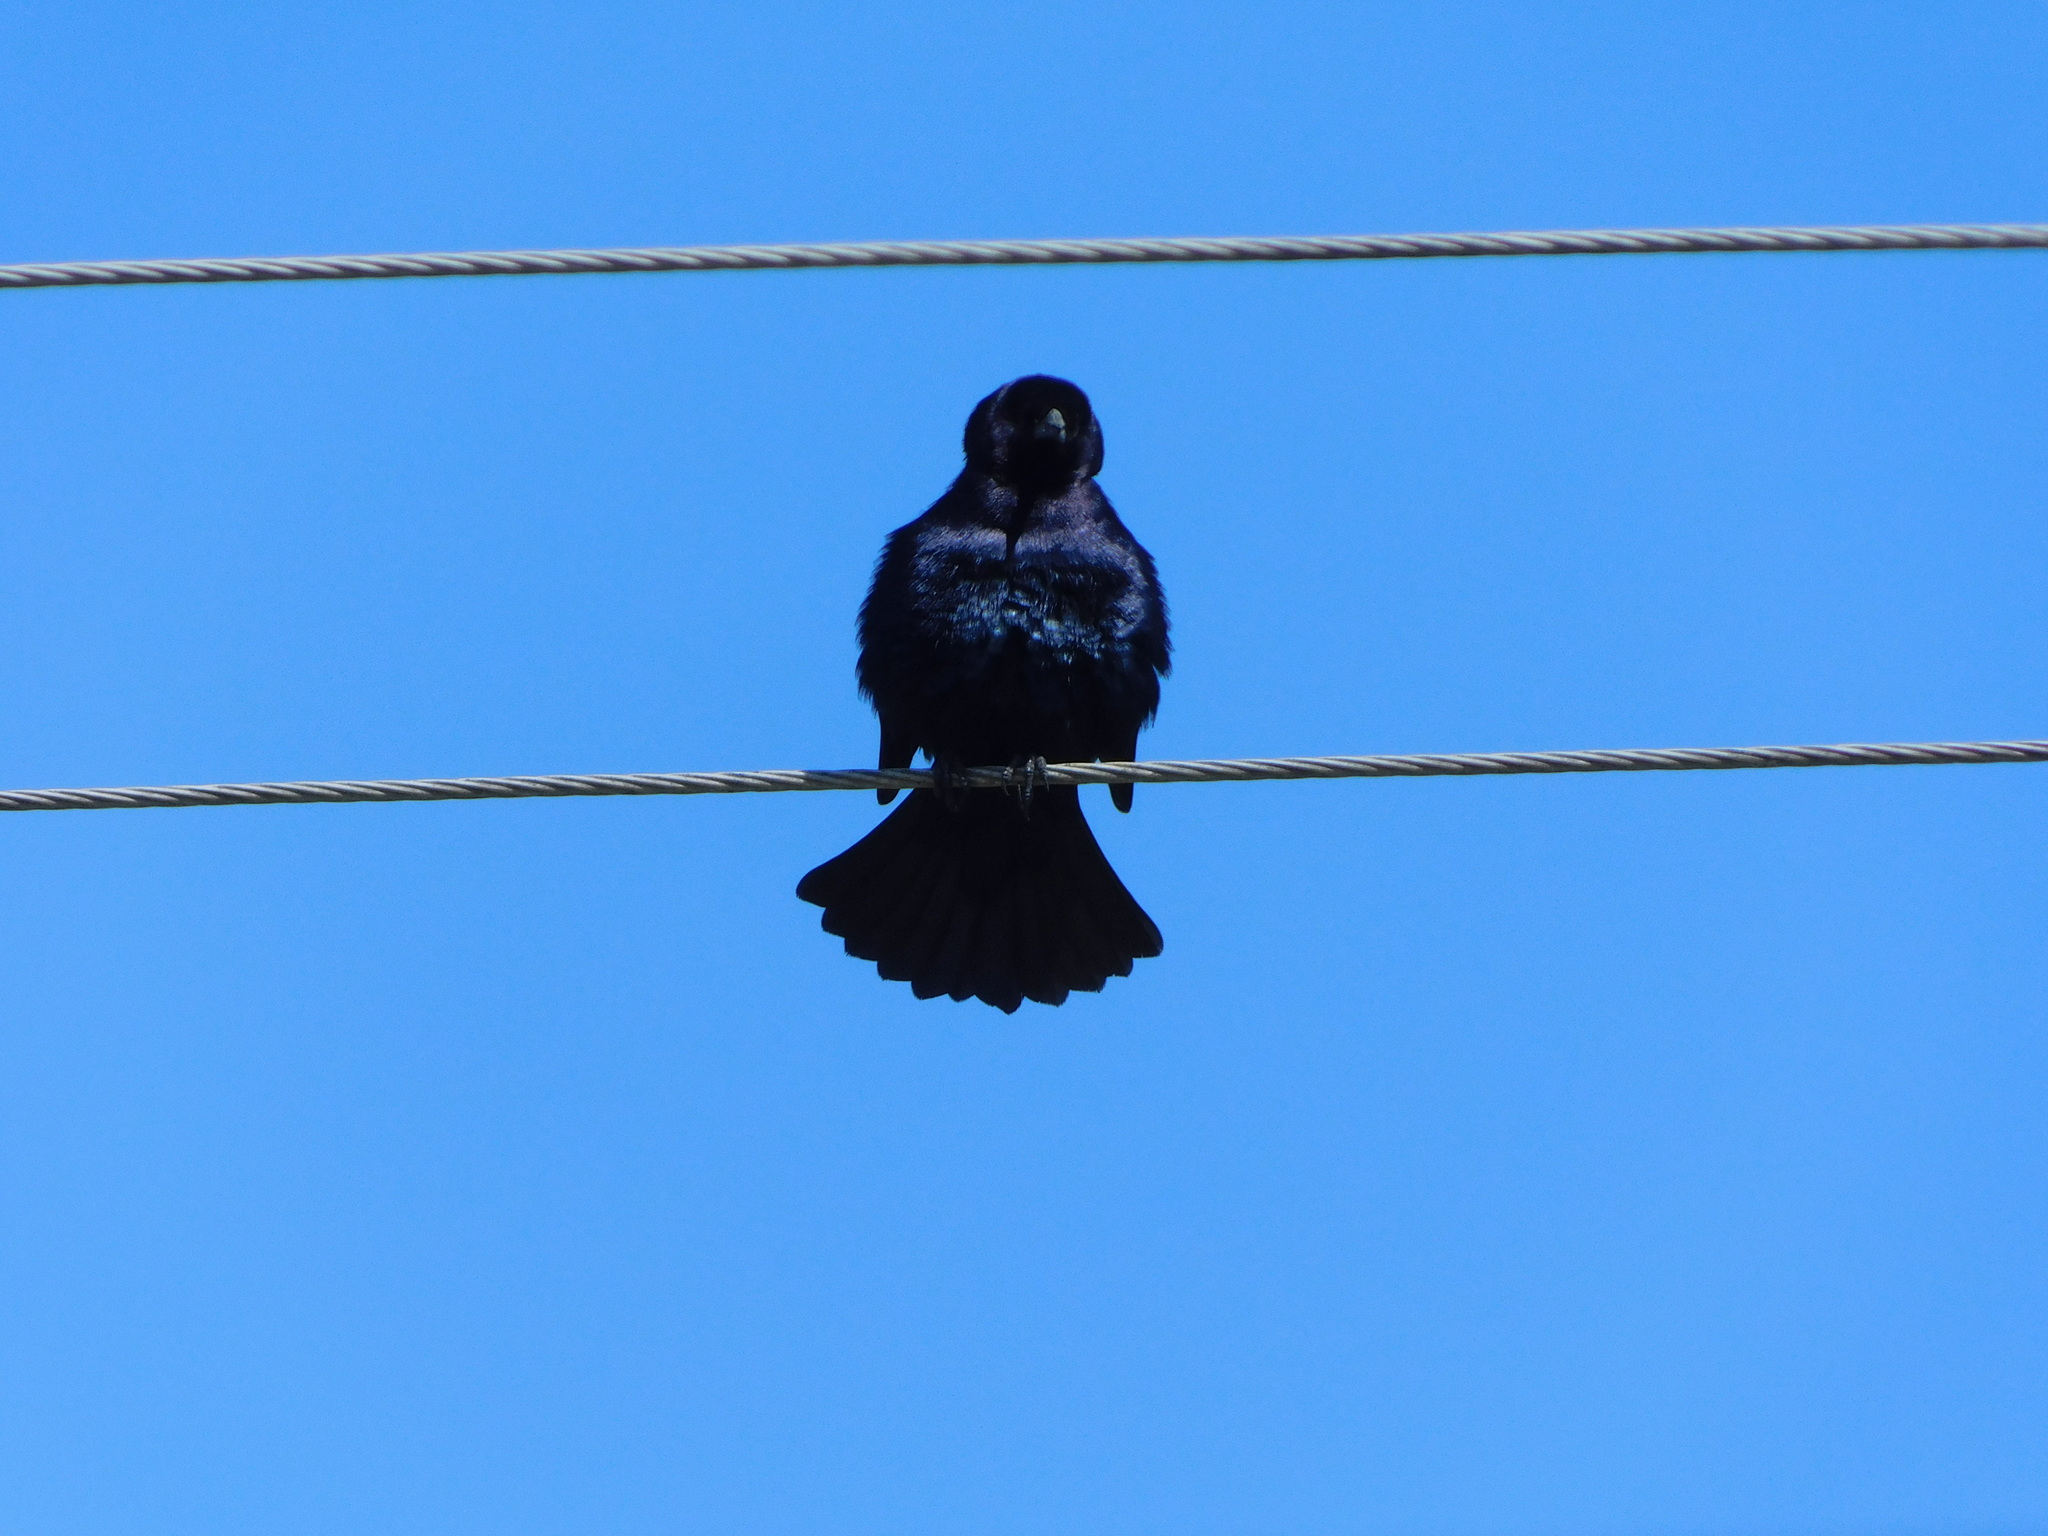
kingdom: Animalia
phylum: Chordata
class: Aves
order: Passeriformes
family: Icteridae
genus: Molothrus
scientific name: Molothrus bonariensis
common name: Shiny cowbird
